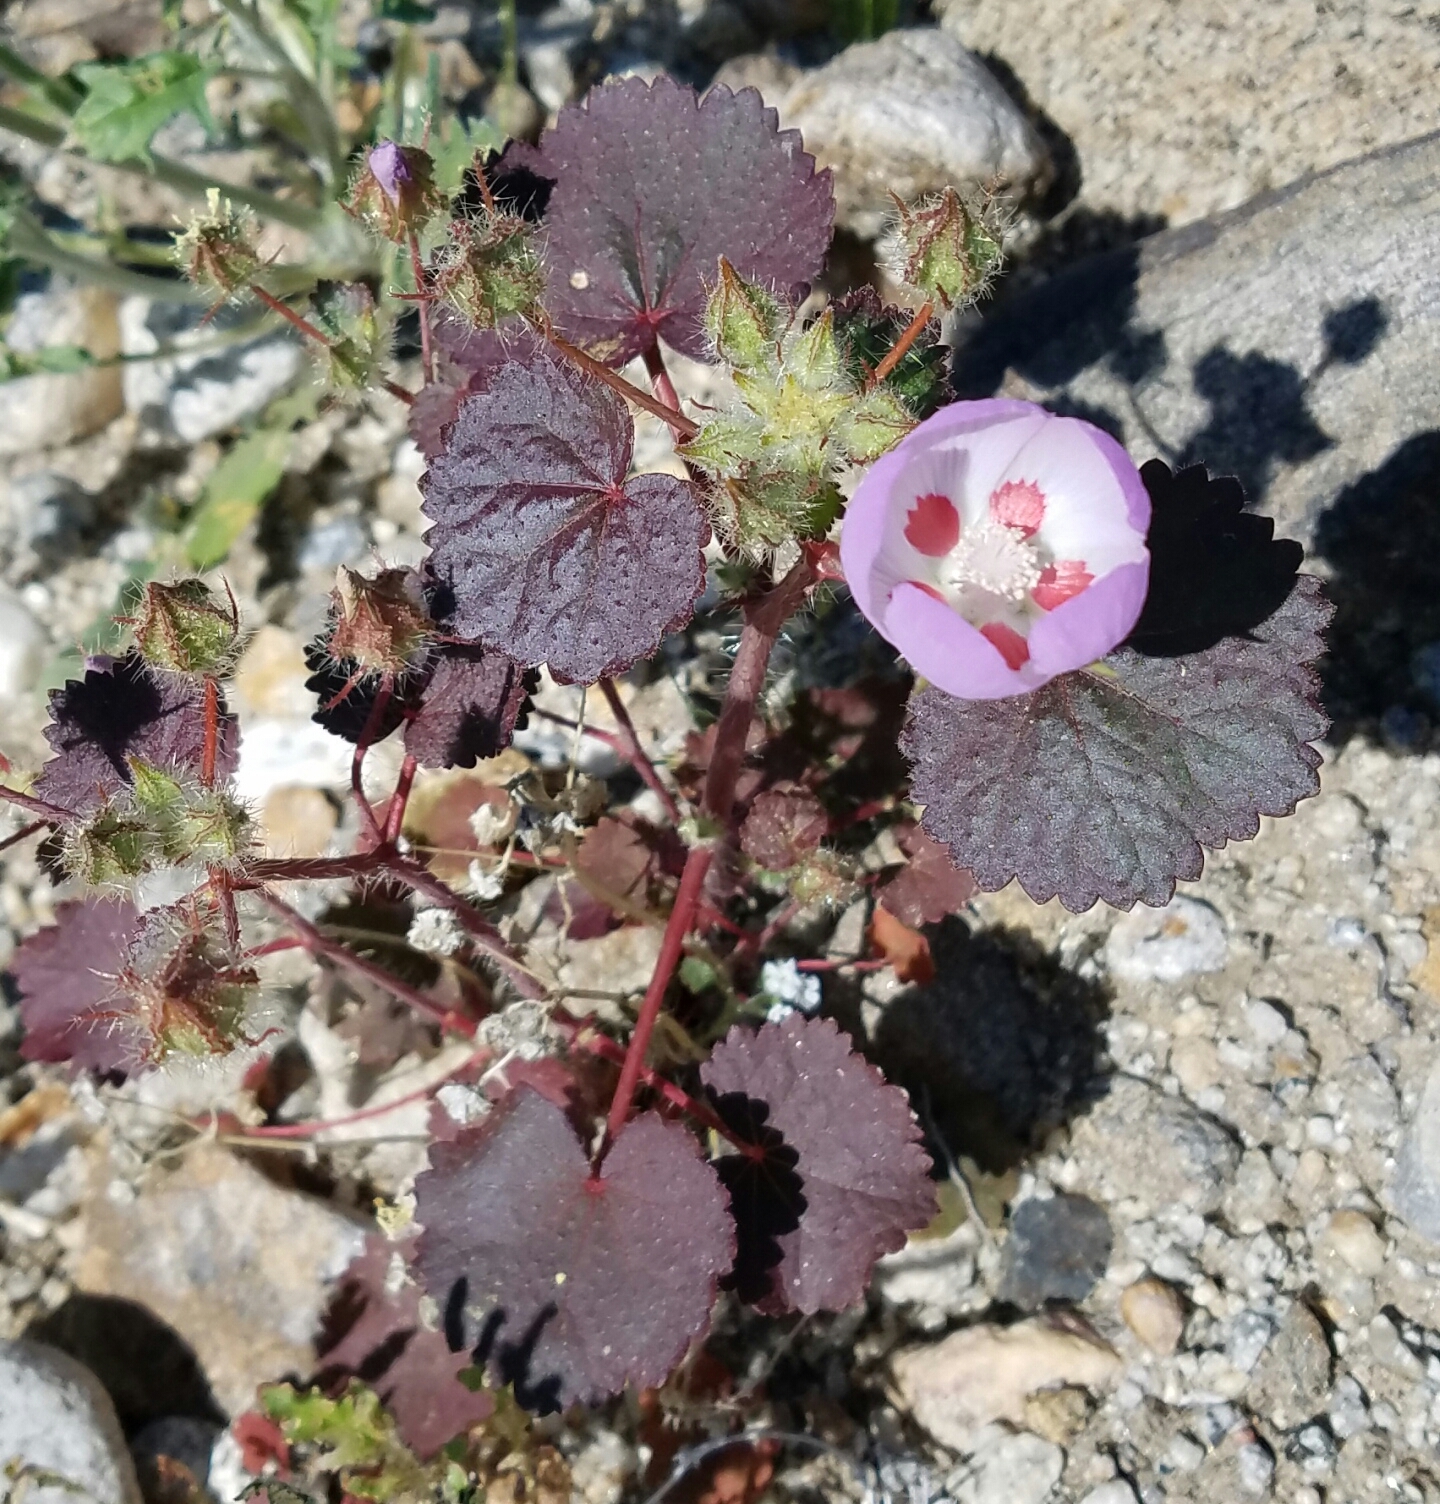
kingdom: Plantae
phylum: Tracheophyta
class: Magnoliopsida
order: Malvales
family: Malvaceae
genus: Eremalche
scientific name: Eremalche rotundifolia
